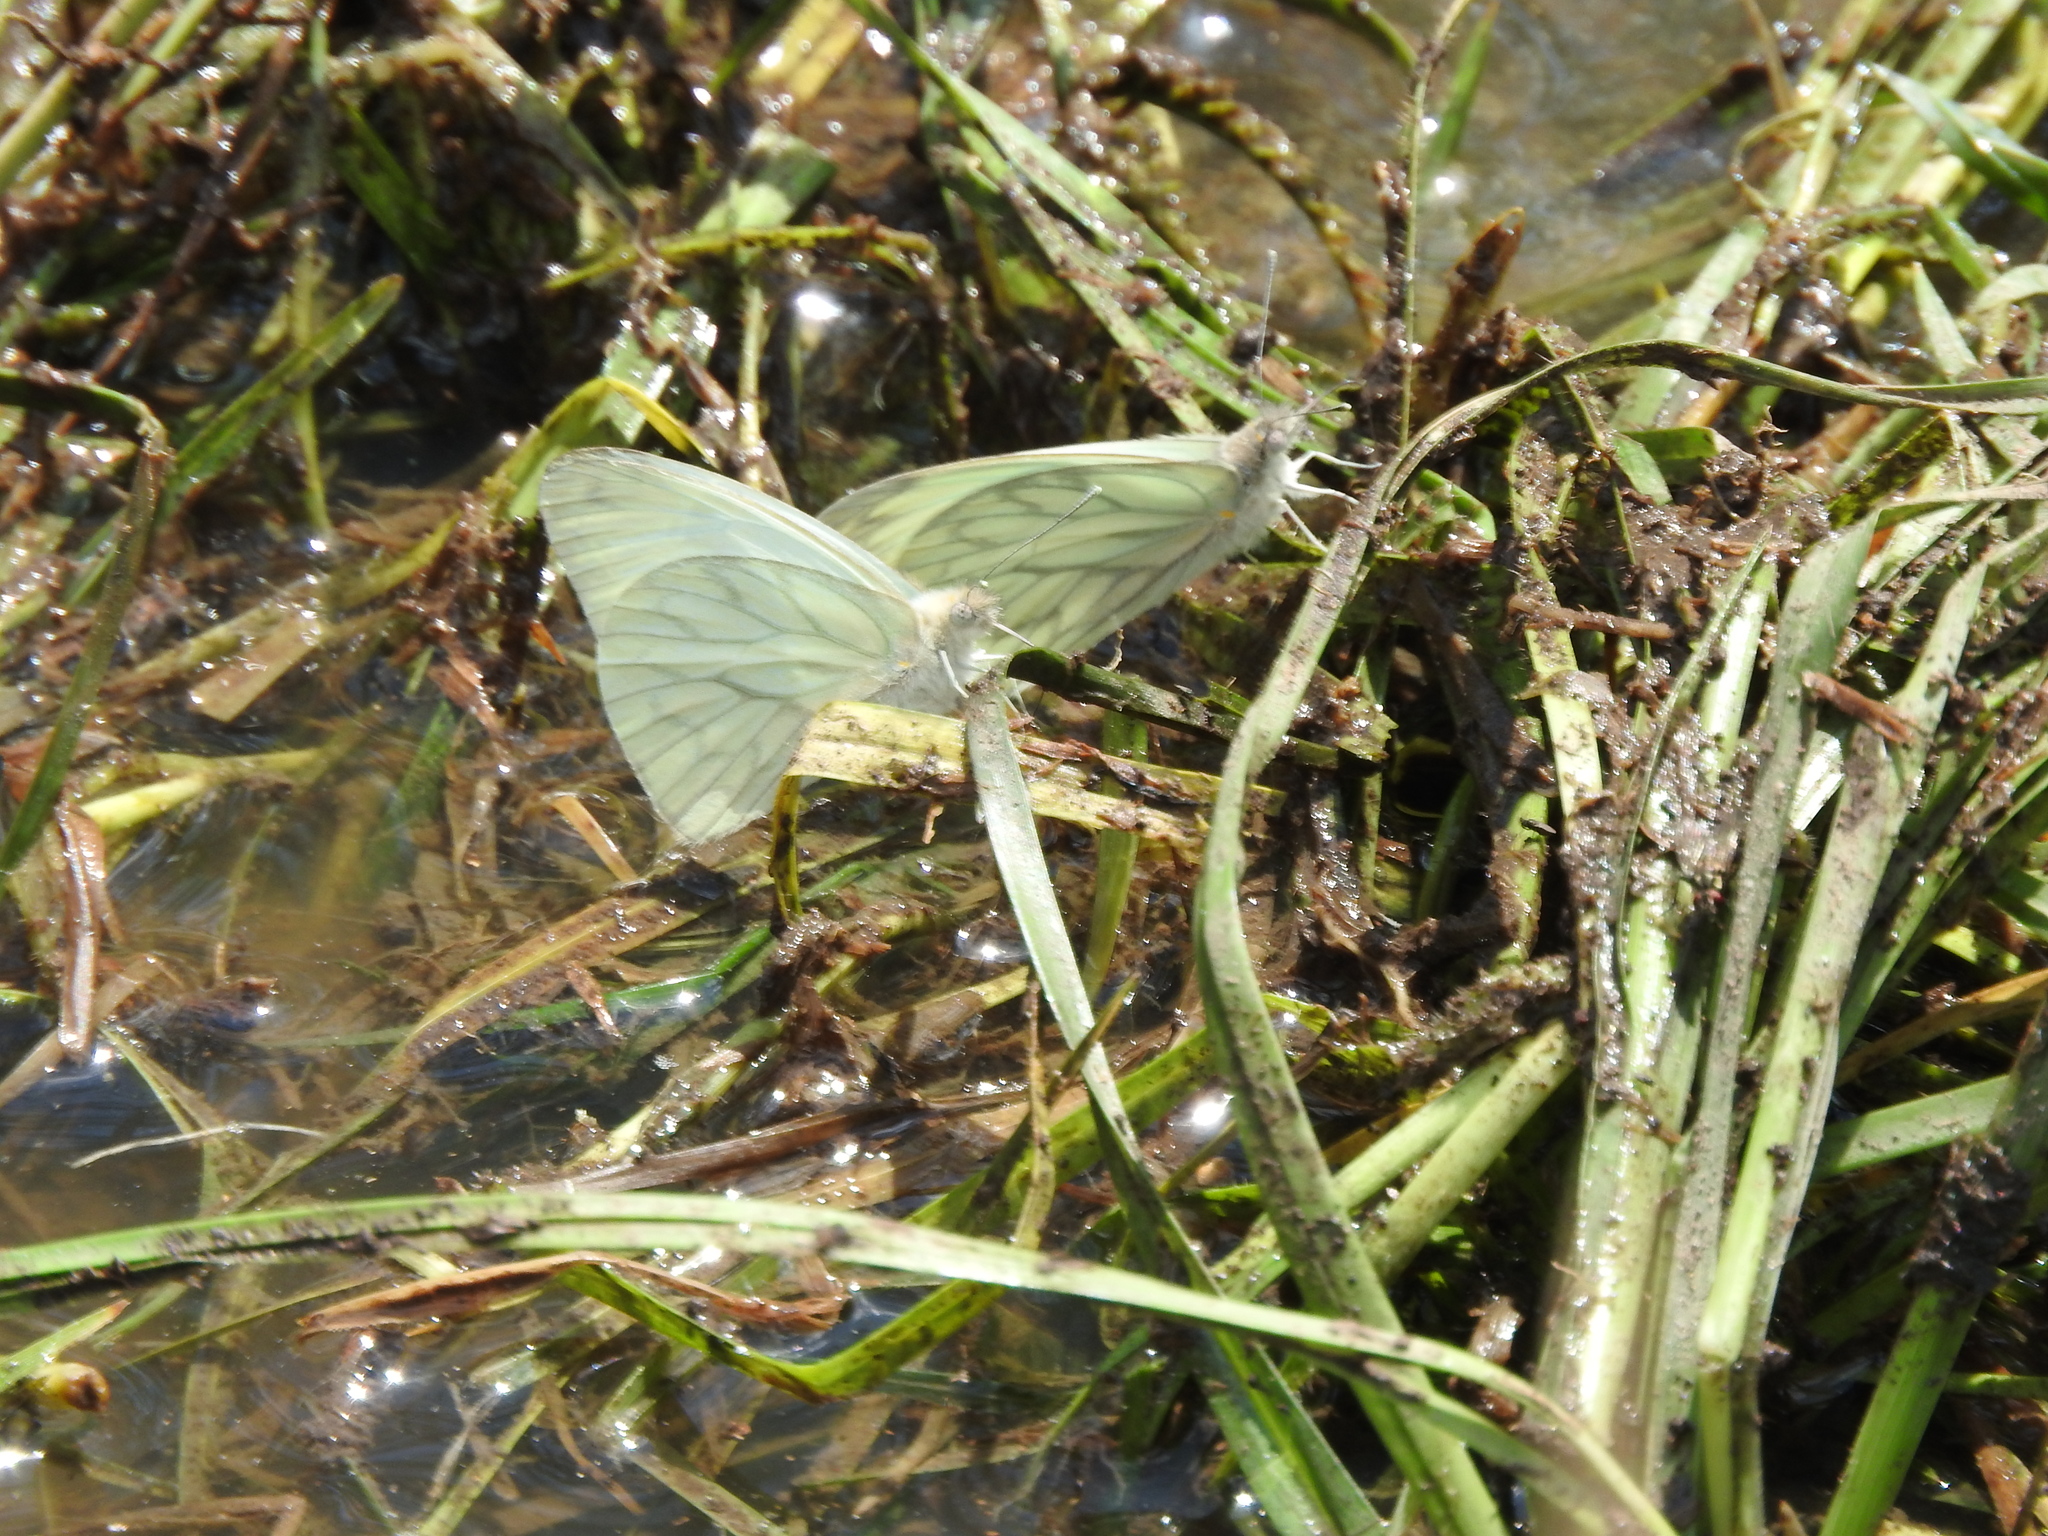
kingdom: Animalia
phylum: Arthropoda
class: Insecta
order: Lepidoptera
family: Pieridae
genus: Hesperocharis
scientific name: Hesperocharis costaricensis
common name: Pallid tilewhite
